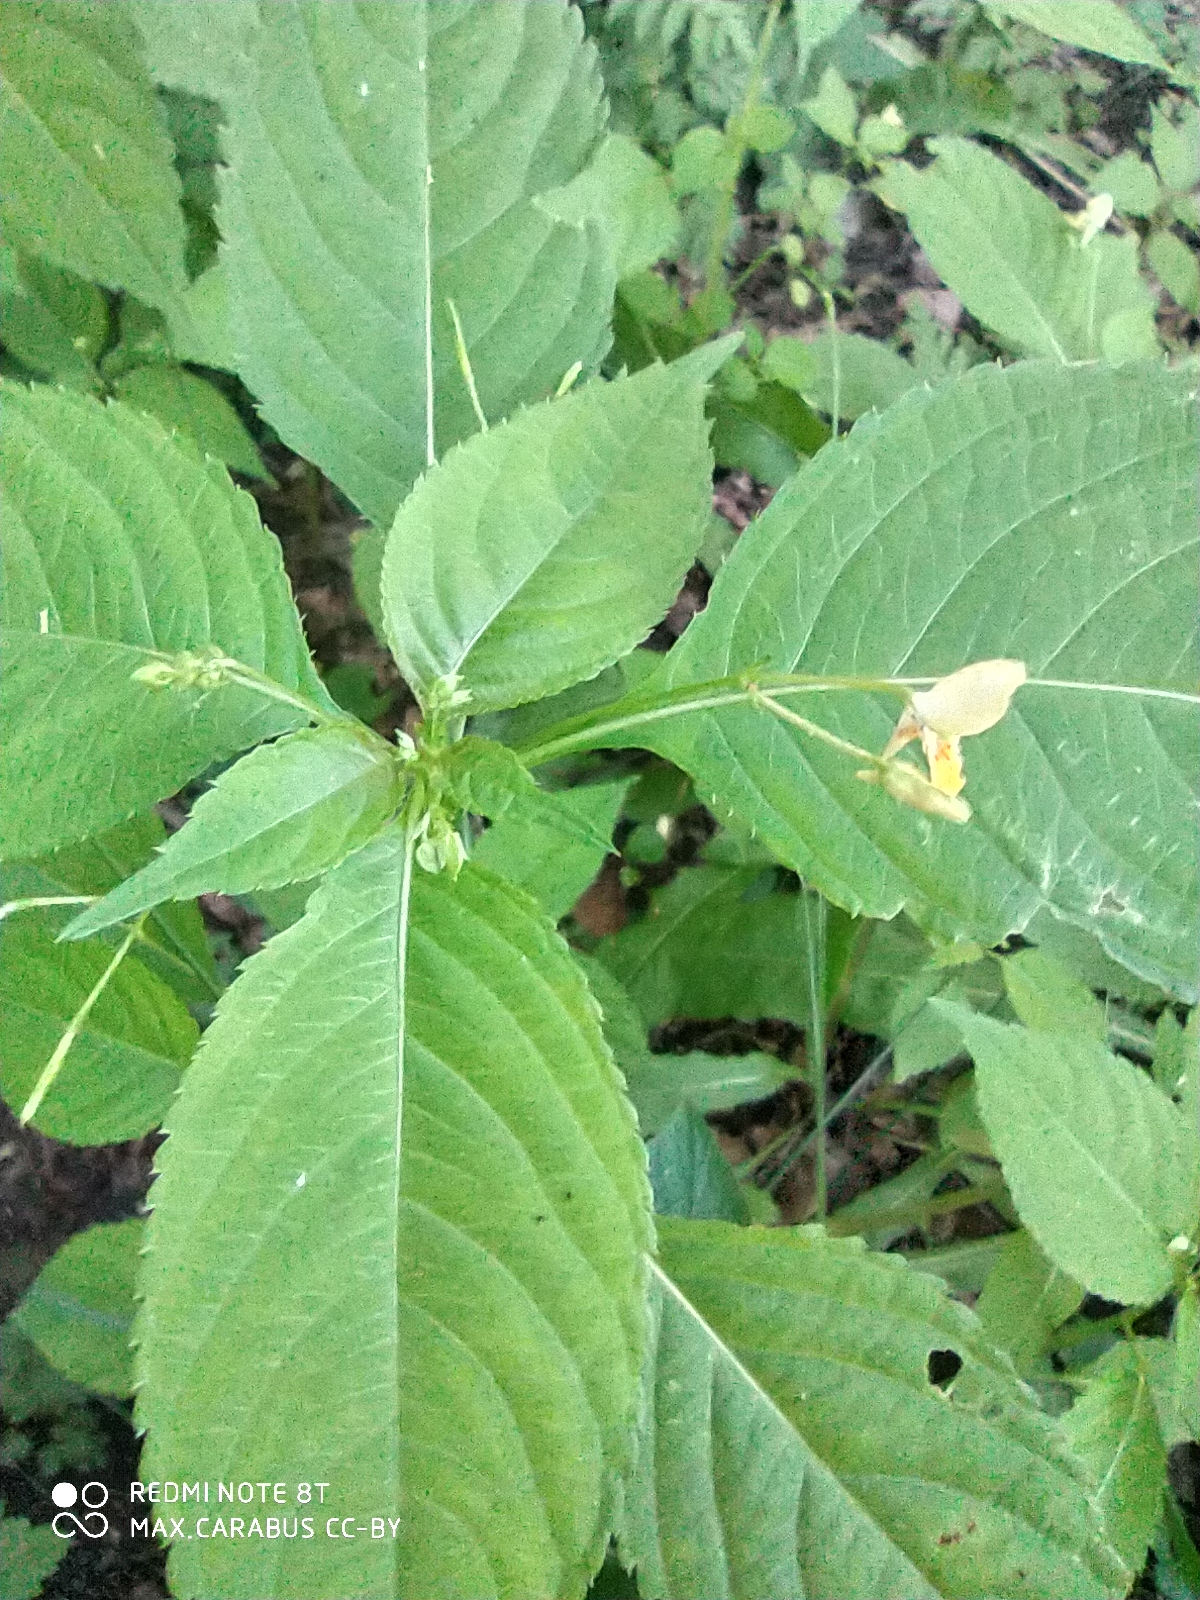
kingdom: Plantae
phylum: Tracheophyta
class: Magnoliopsida
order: Ericales
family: Balsaminaceae
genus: Impatiens
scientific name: Impatiens parviflora
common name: Small balsam
